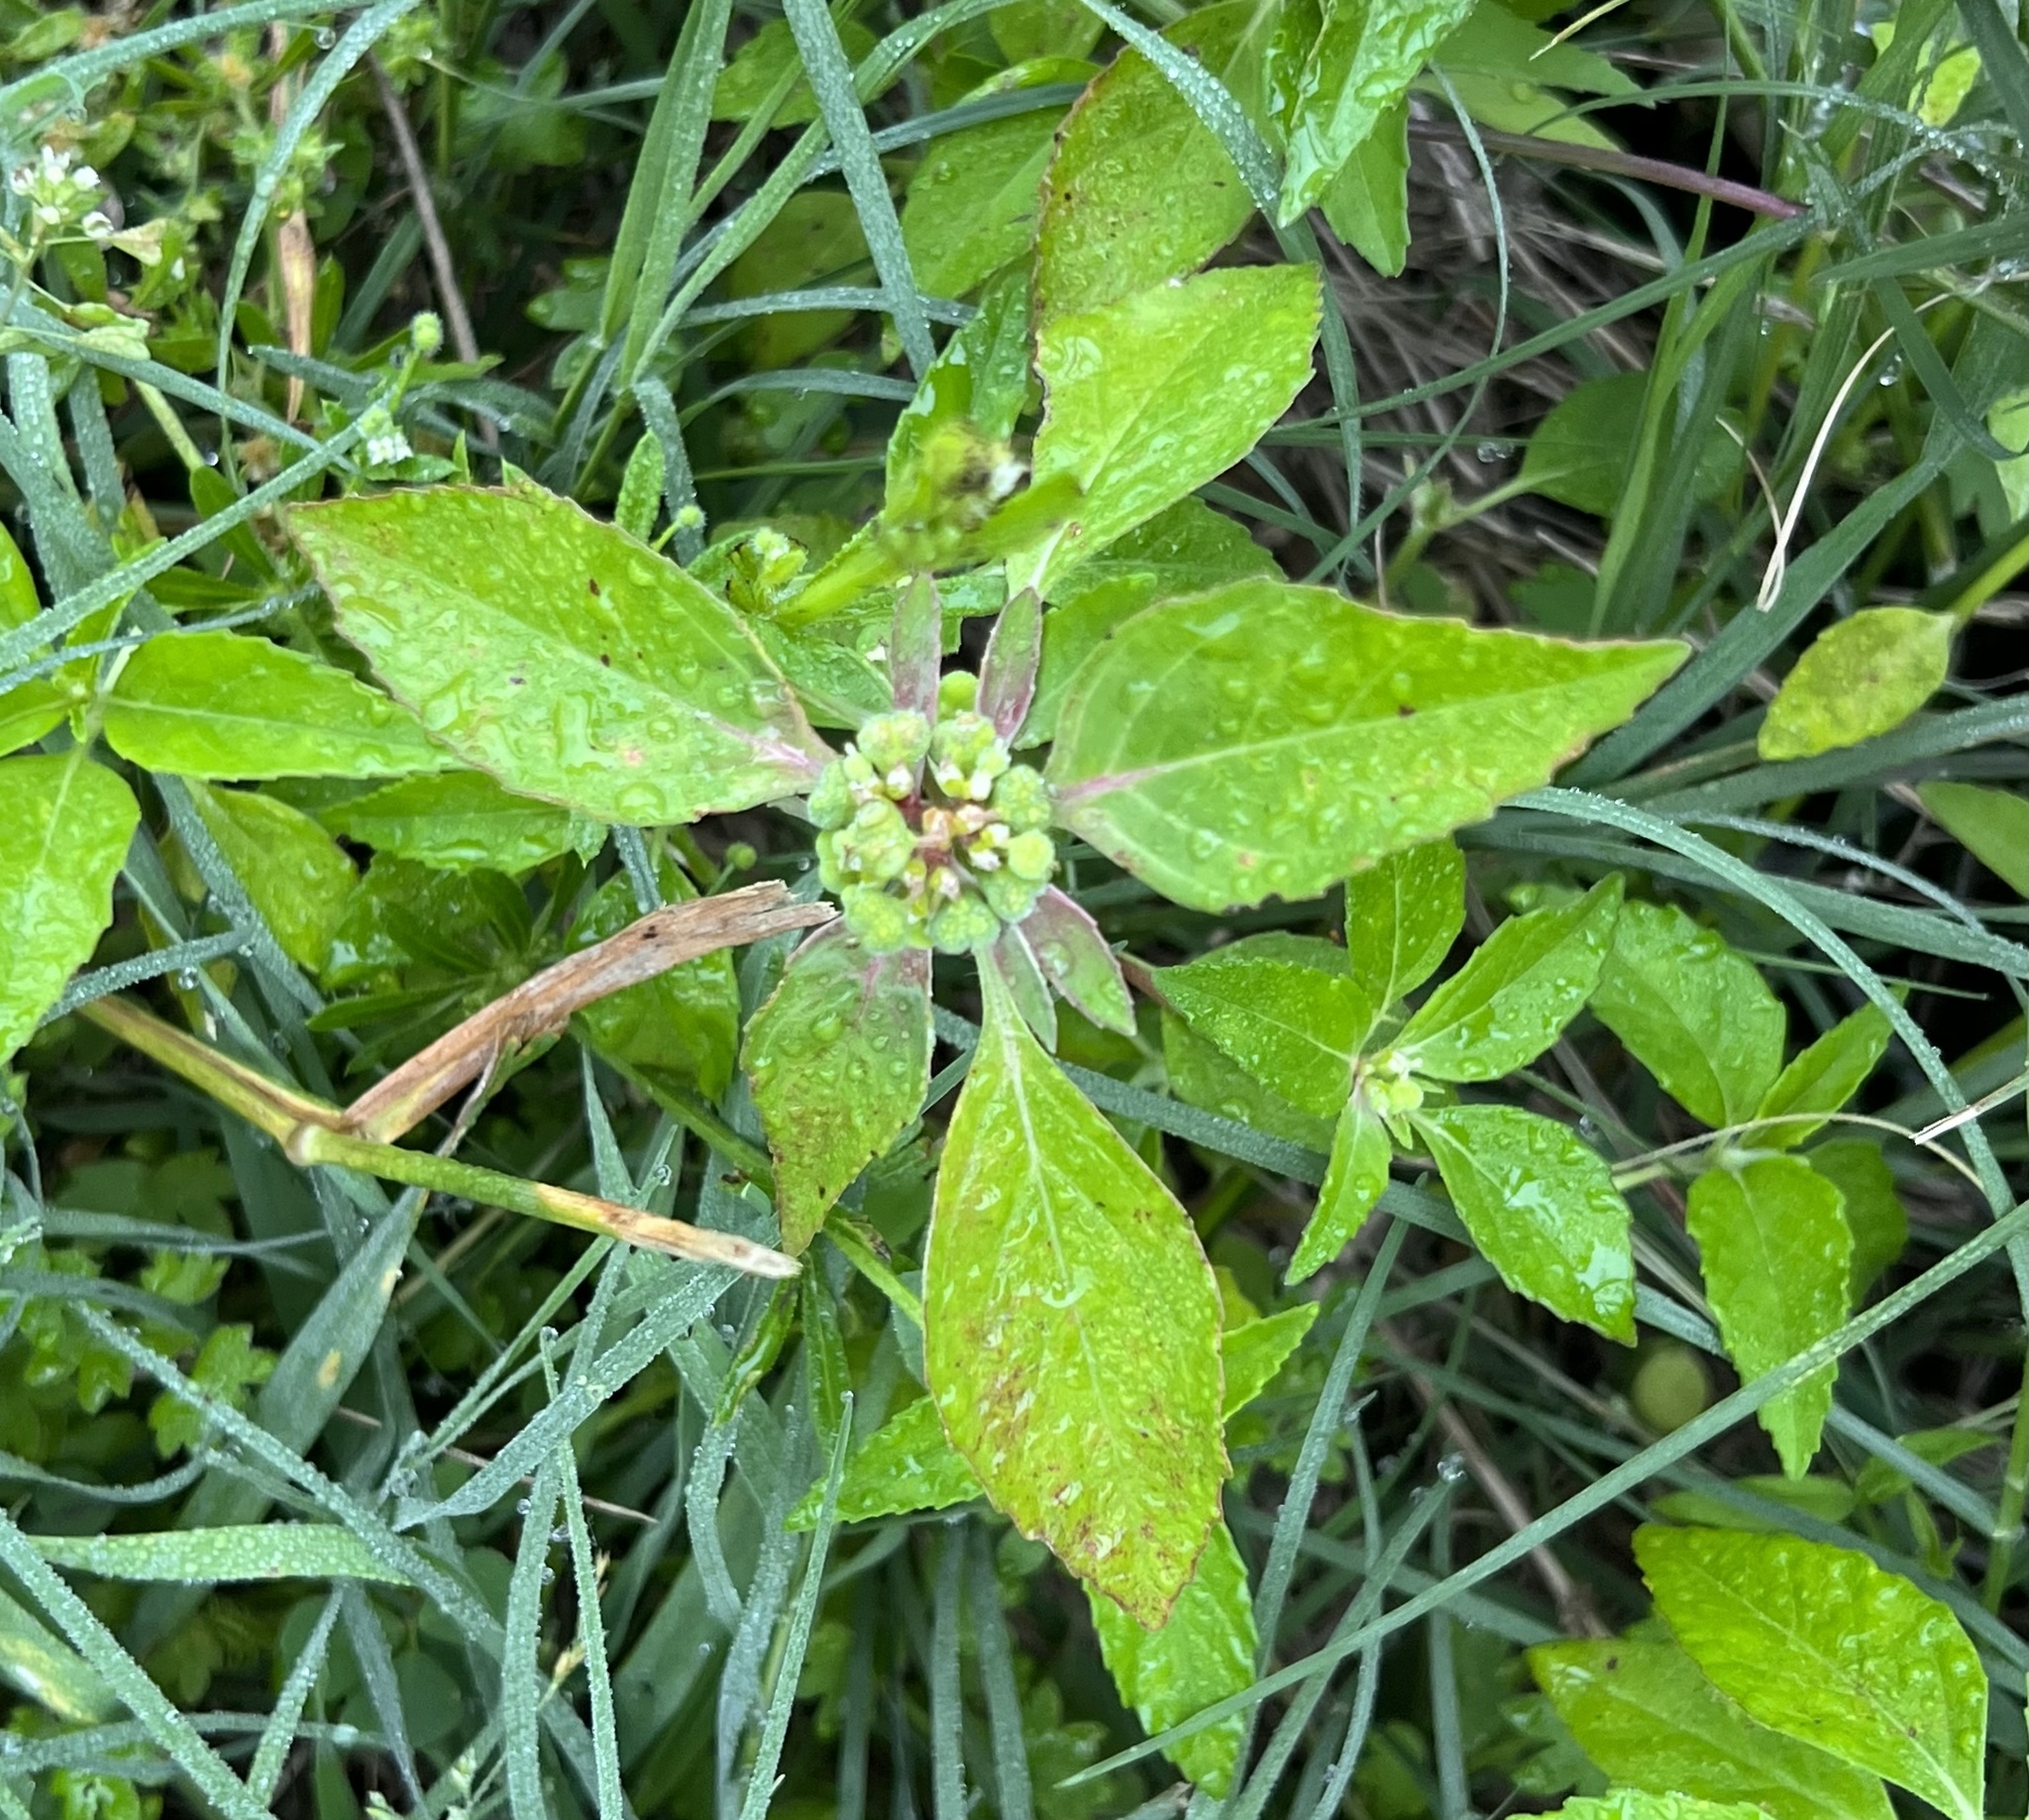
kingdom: Plantae
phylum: Tracheophyta
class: Magnoliopsida
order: Malpighiales
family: Euphorbiaceae
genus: Euphorbia
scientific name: Euphorbia dentata
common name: Dentate spurge
